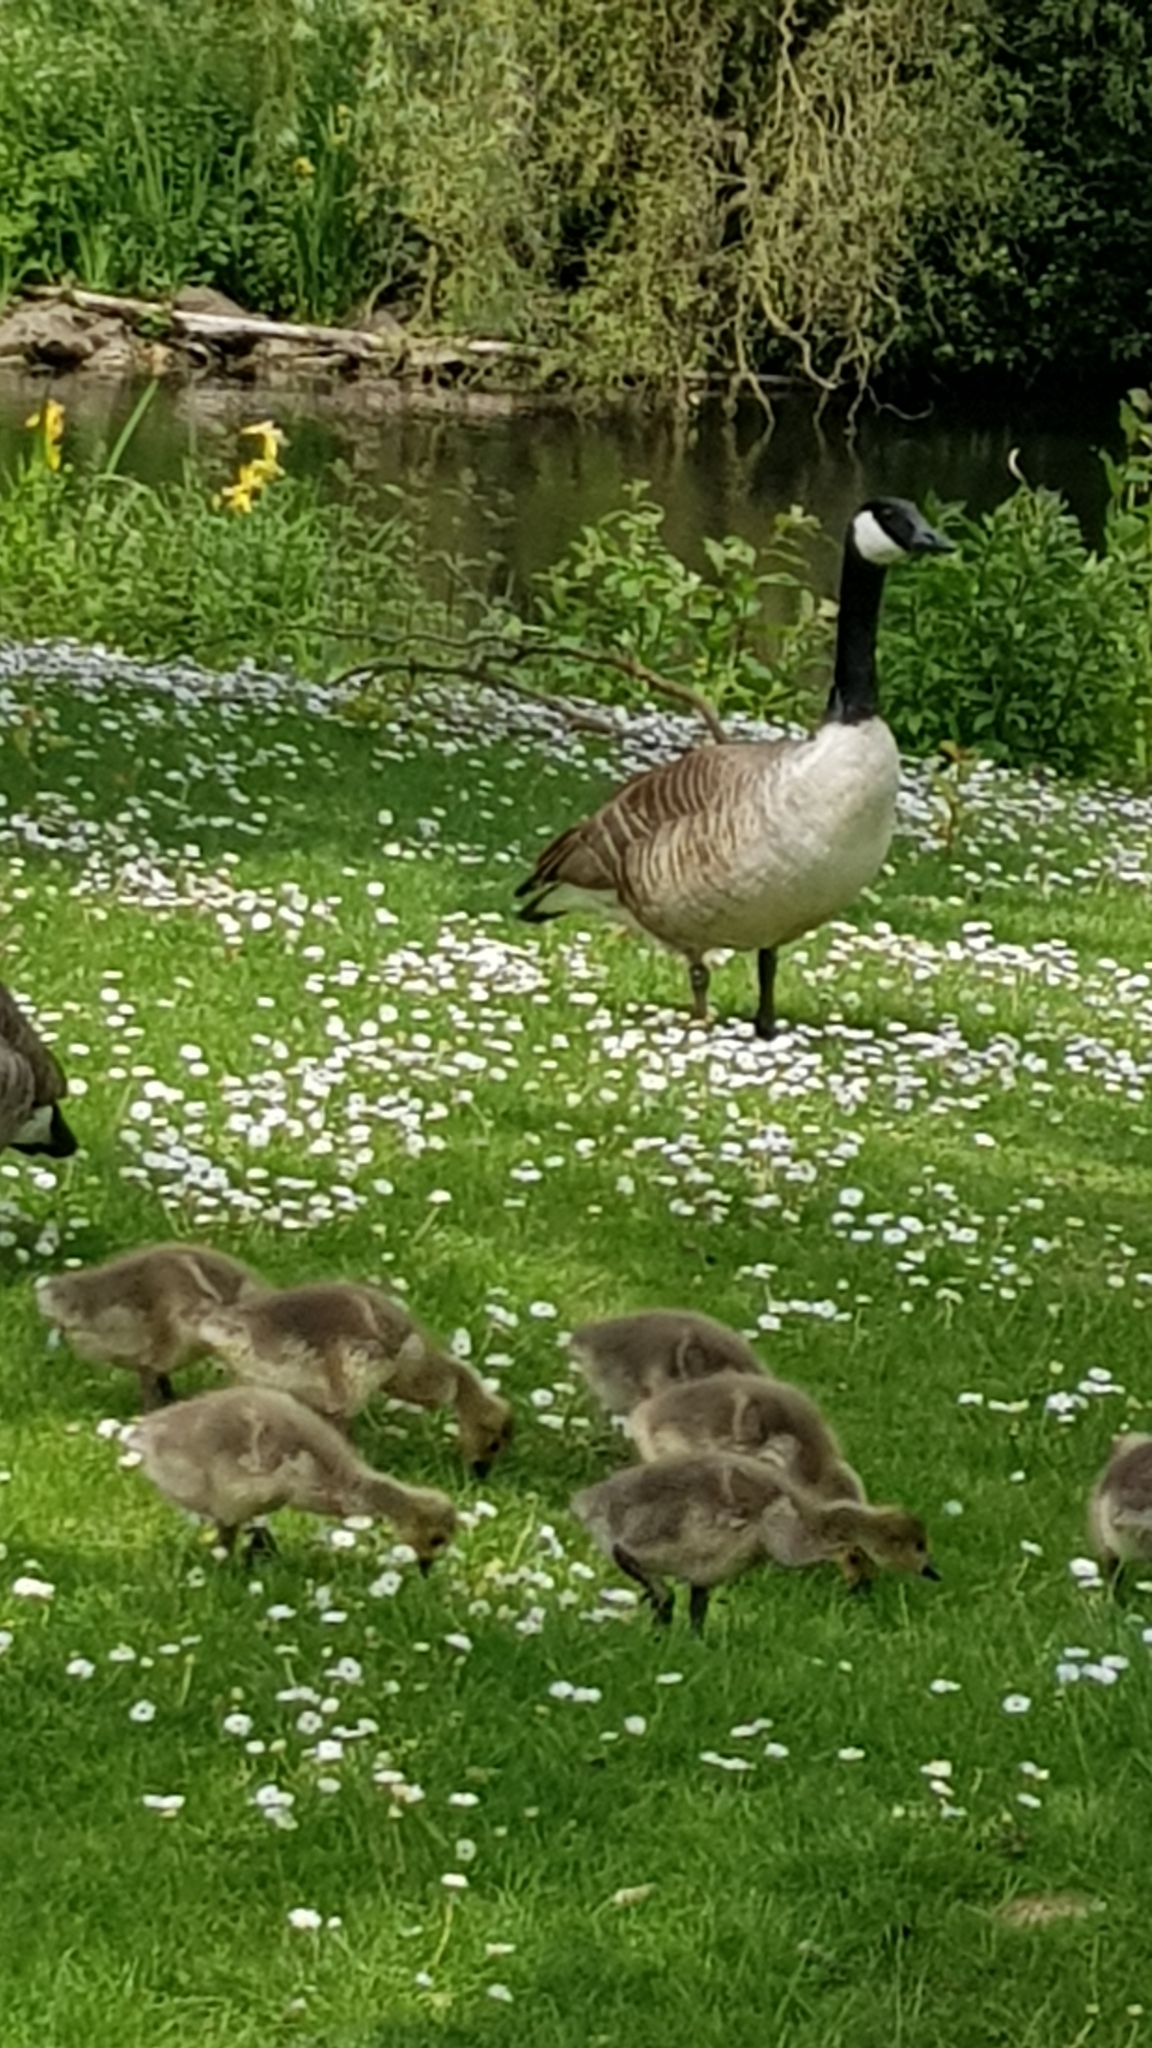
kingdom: Animalia
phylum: Chordata
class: Aves
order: Anseriformes
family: Anatidae
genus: Branta
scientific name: Branta canadensis
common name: Canada goose
